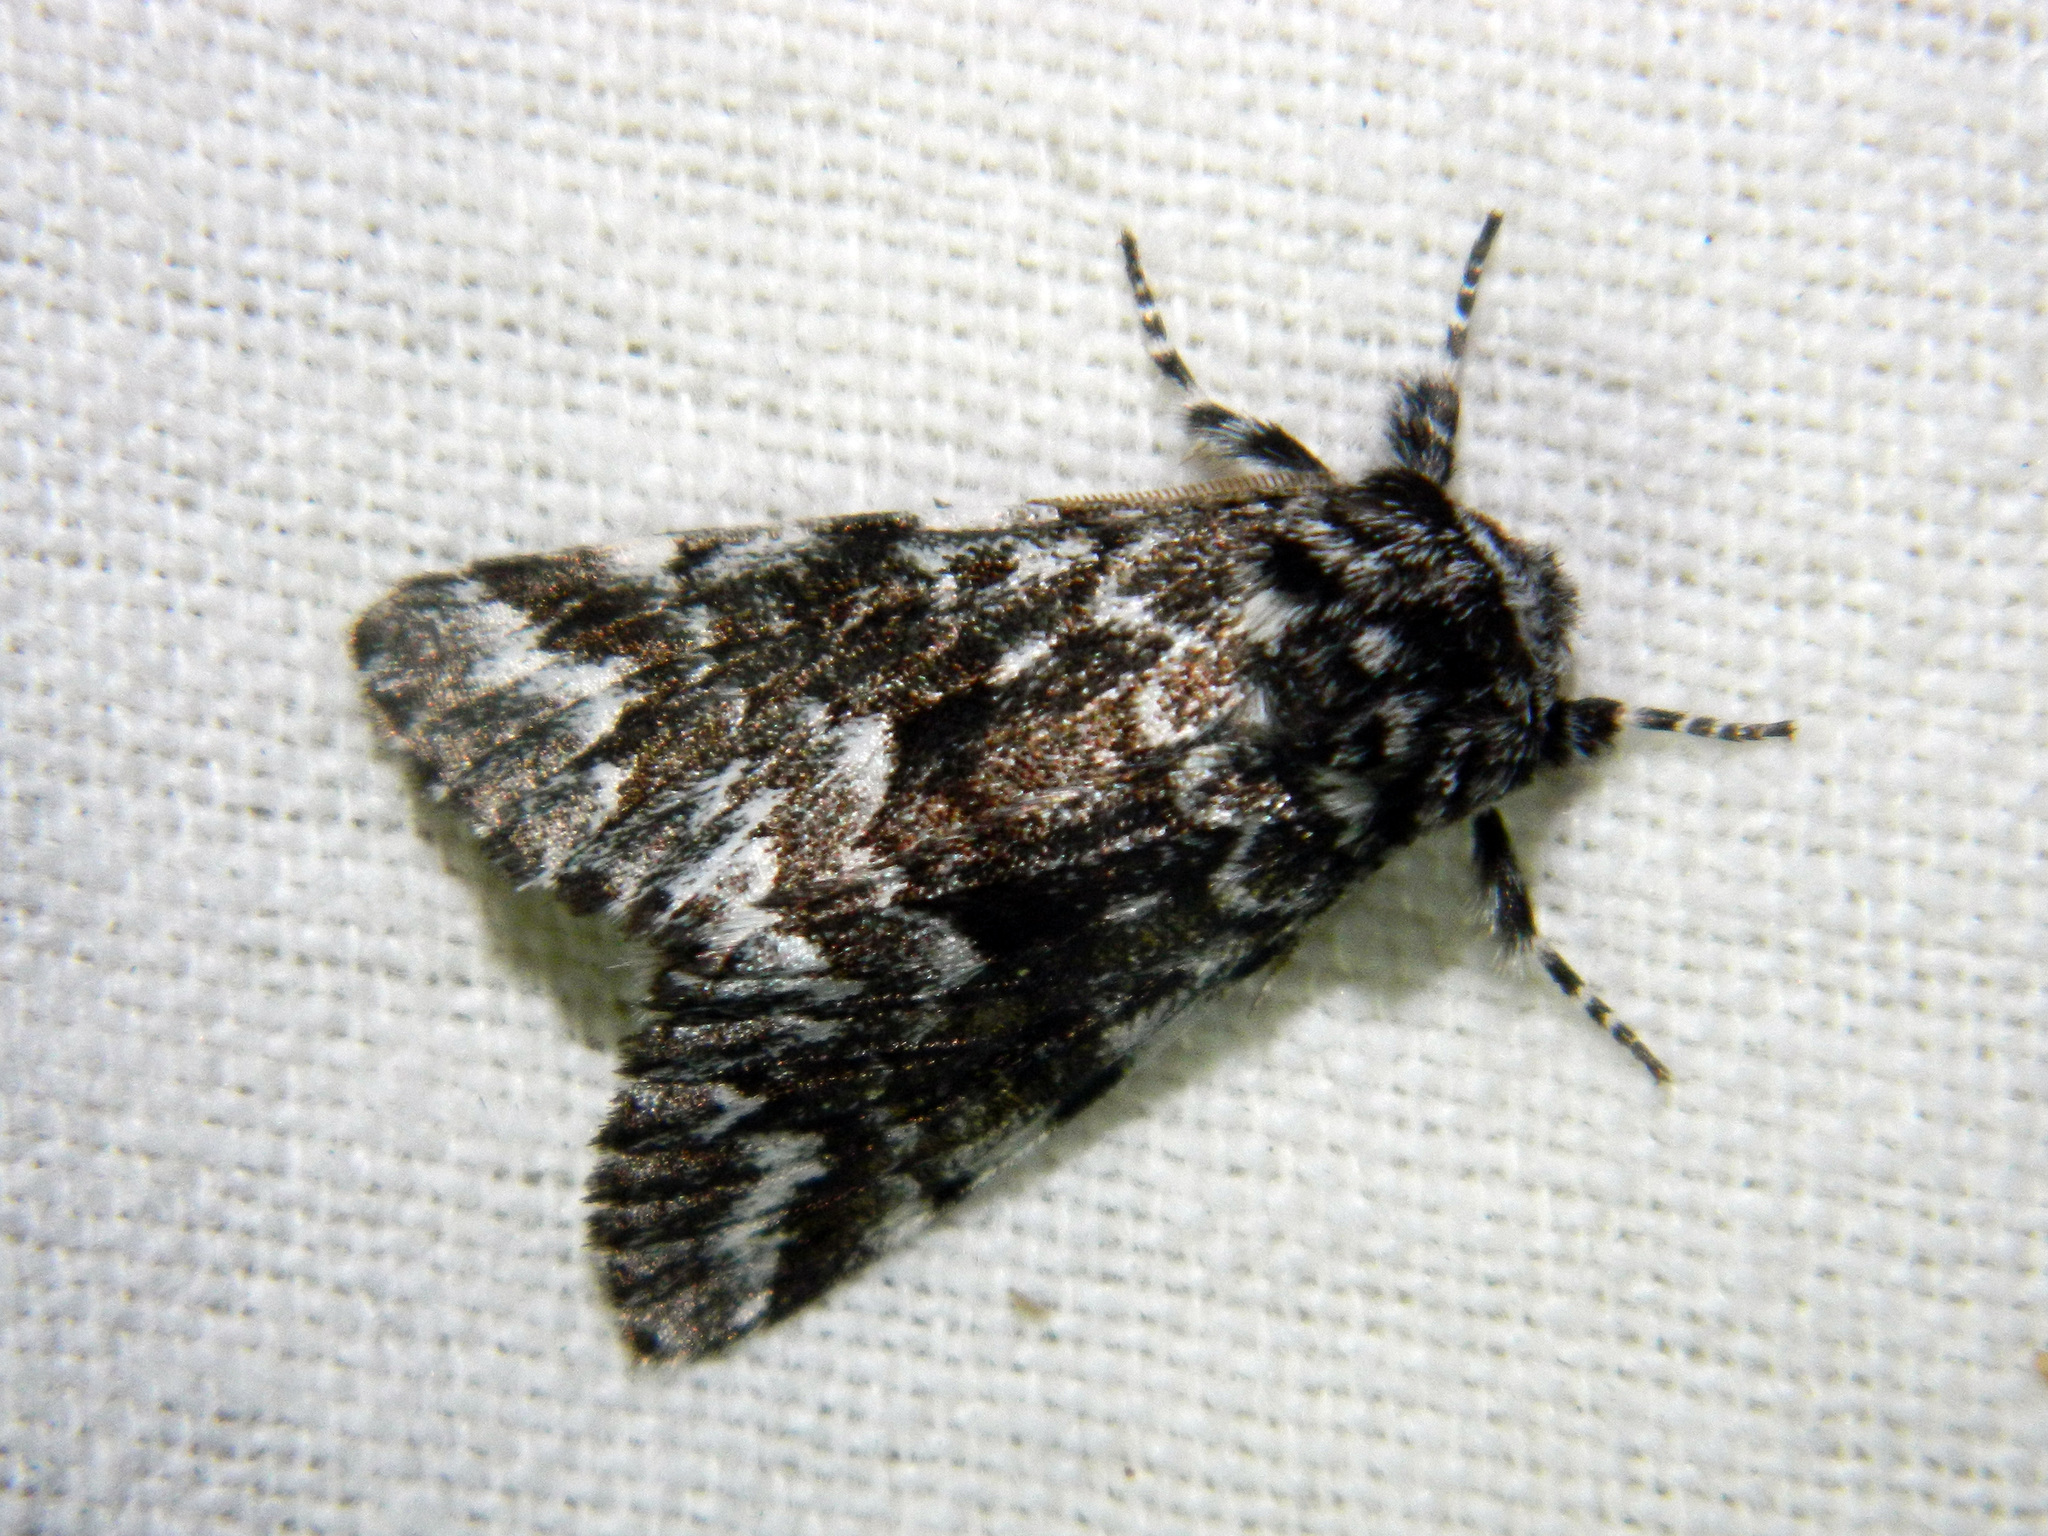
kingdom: Animalia
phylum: Arthropoda
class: Insecta
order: Lepidoptera
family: Noctuidae
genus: Panthea
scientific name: Panthea acronyctoides
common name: Black zigzag moth
